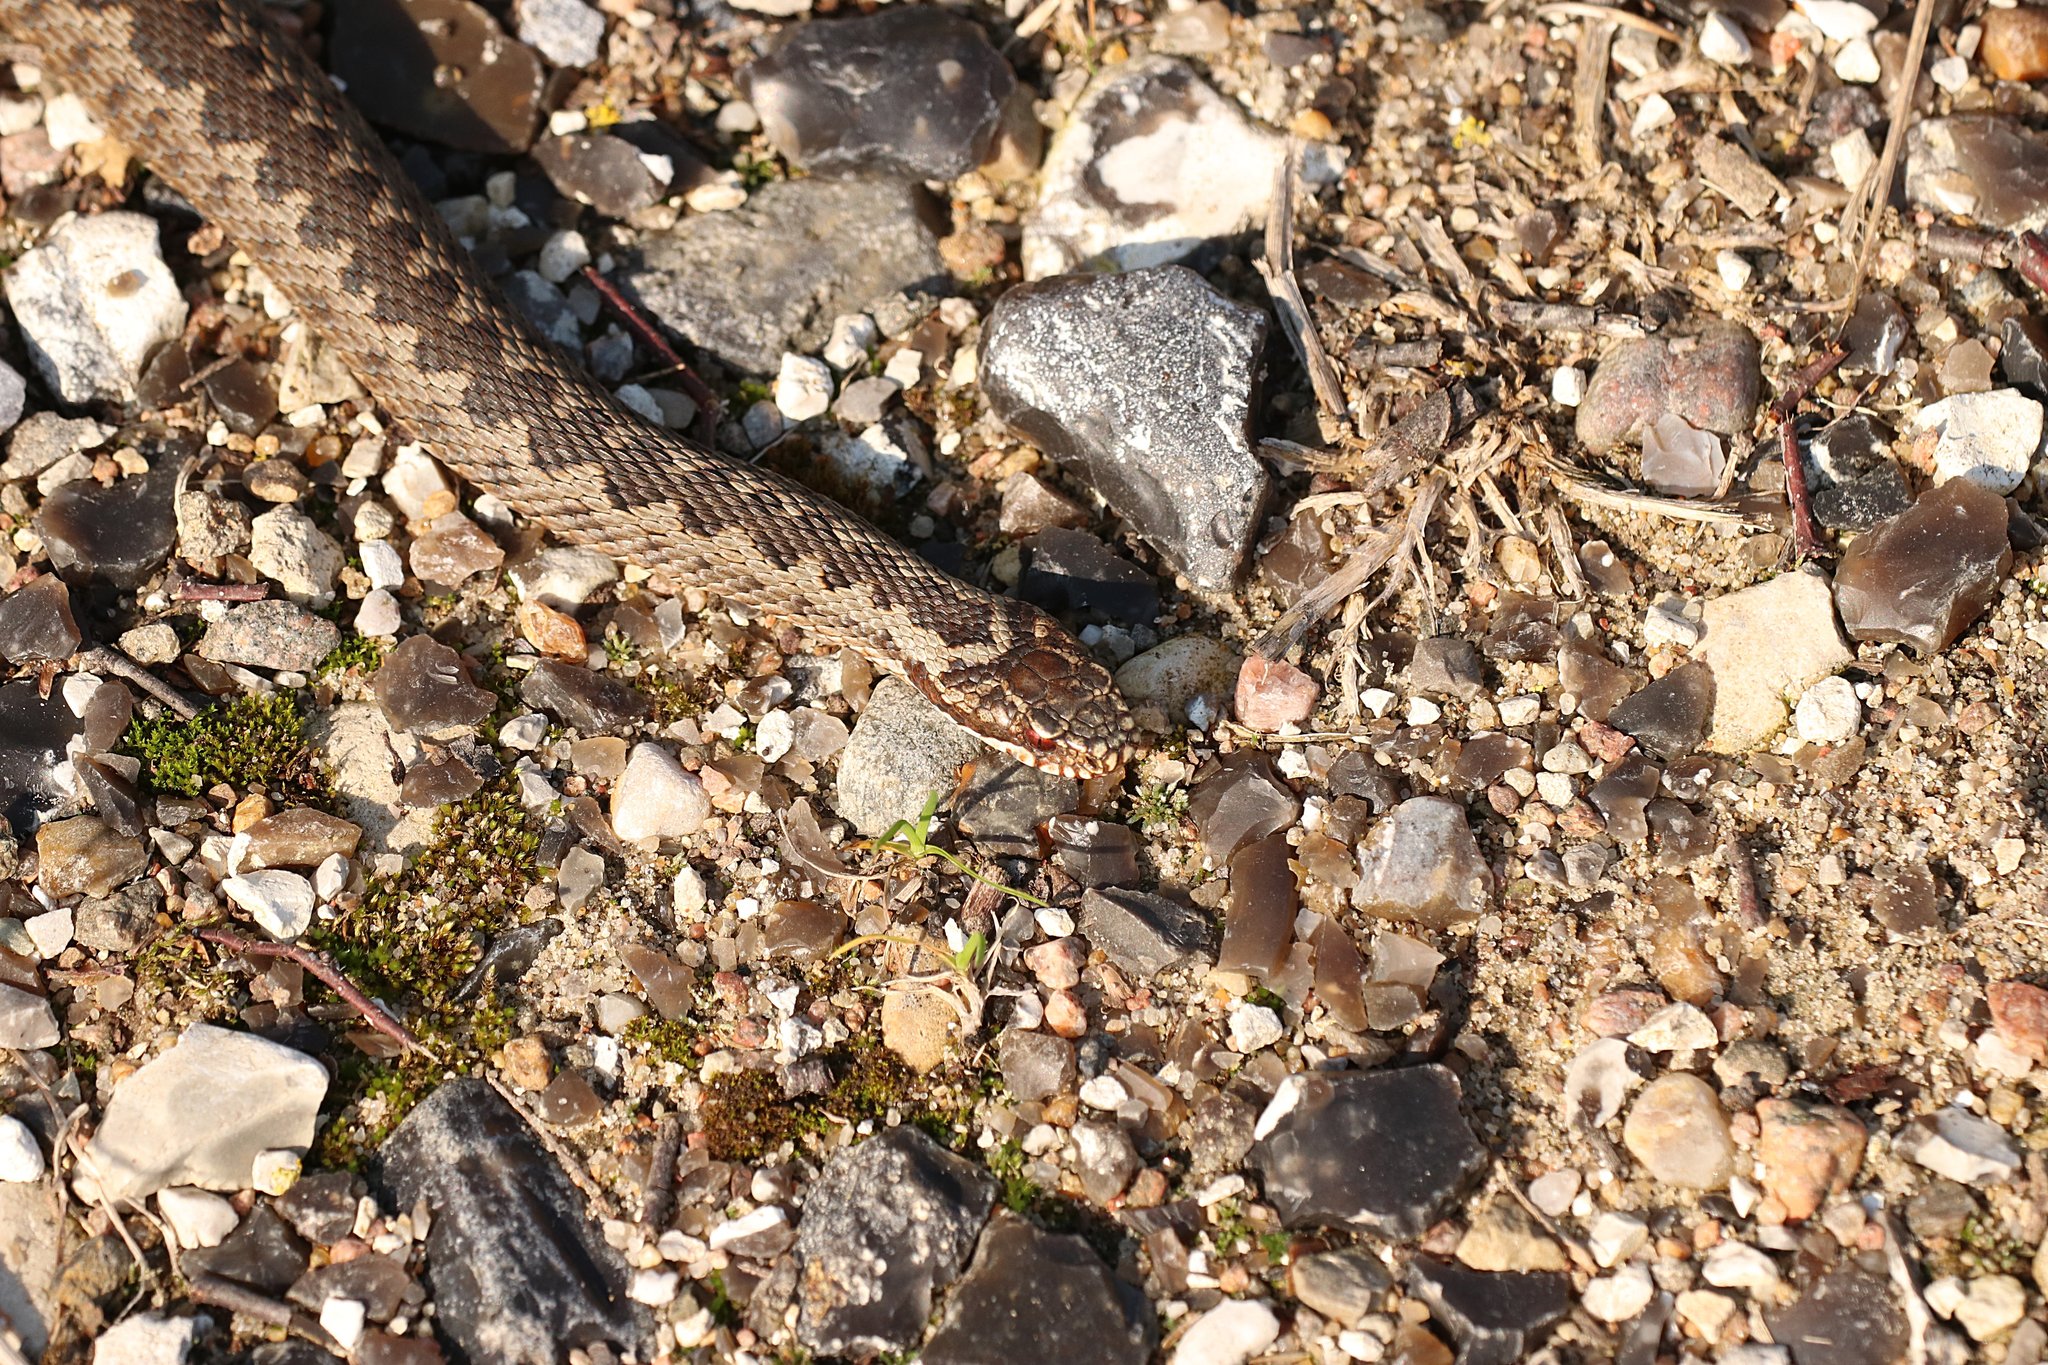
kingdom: Animalia
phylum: Chordata
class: Squamata
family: Viperidae
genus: Vipera
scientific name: Vipera berus
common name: Adder
